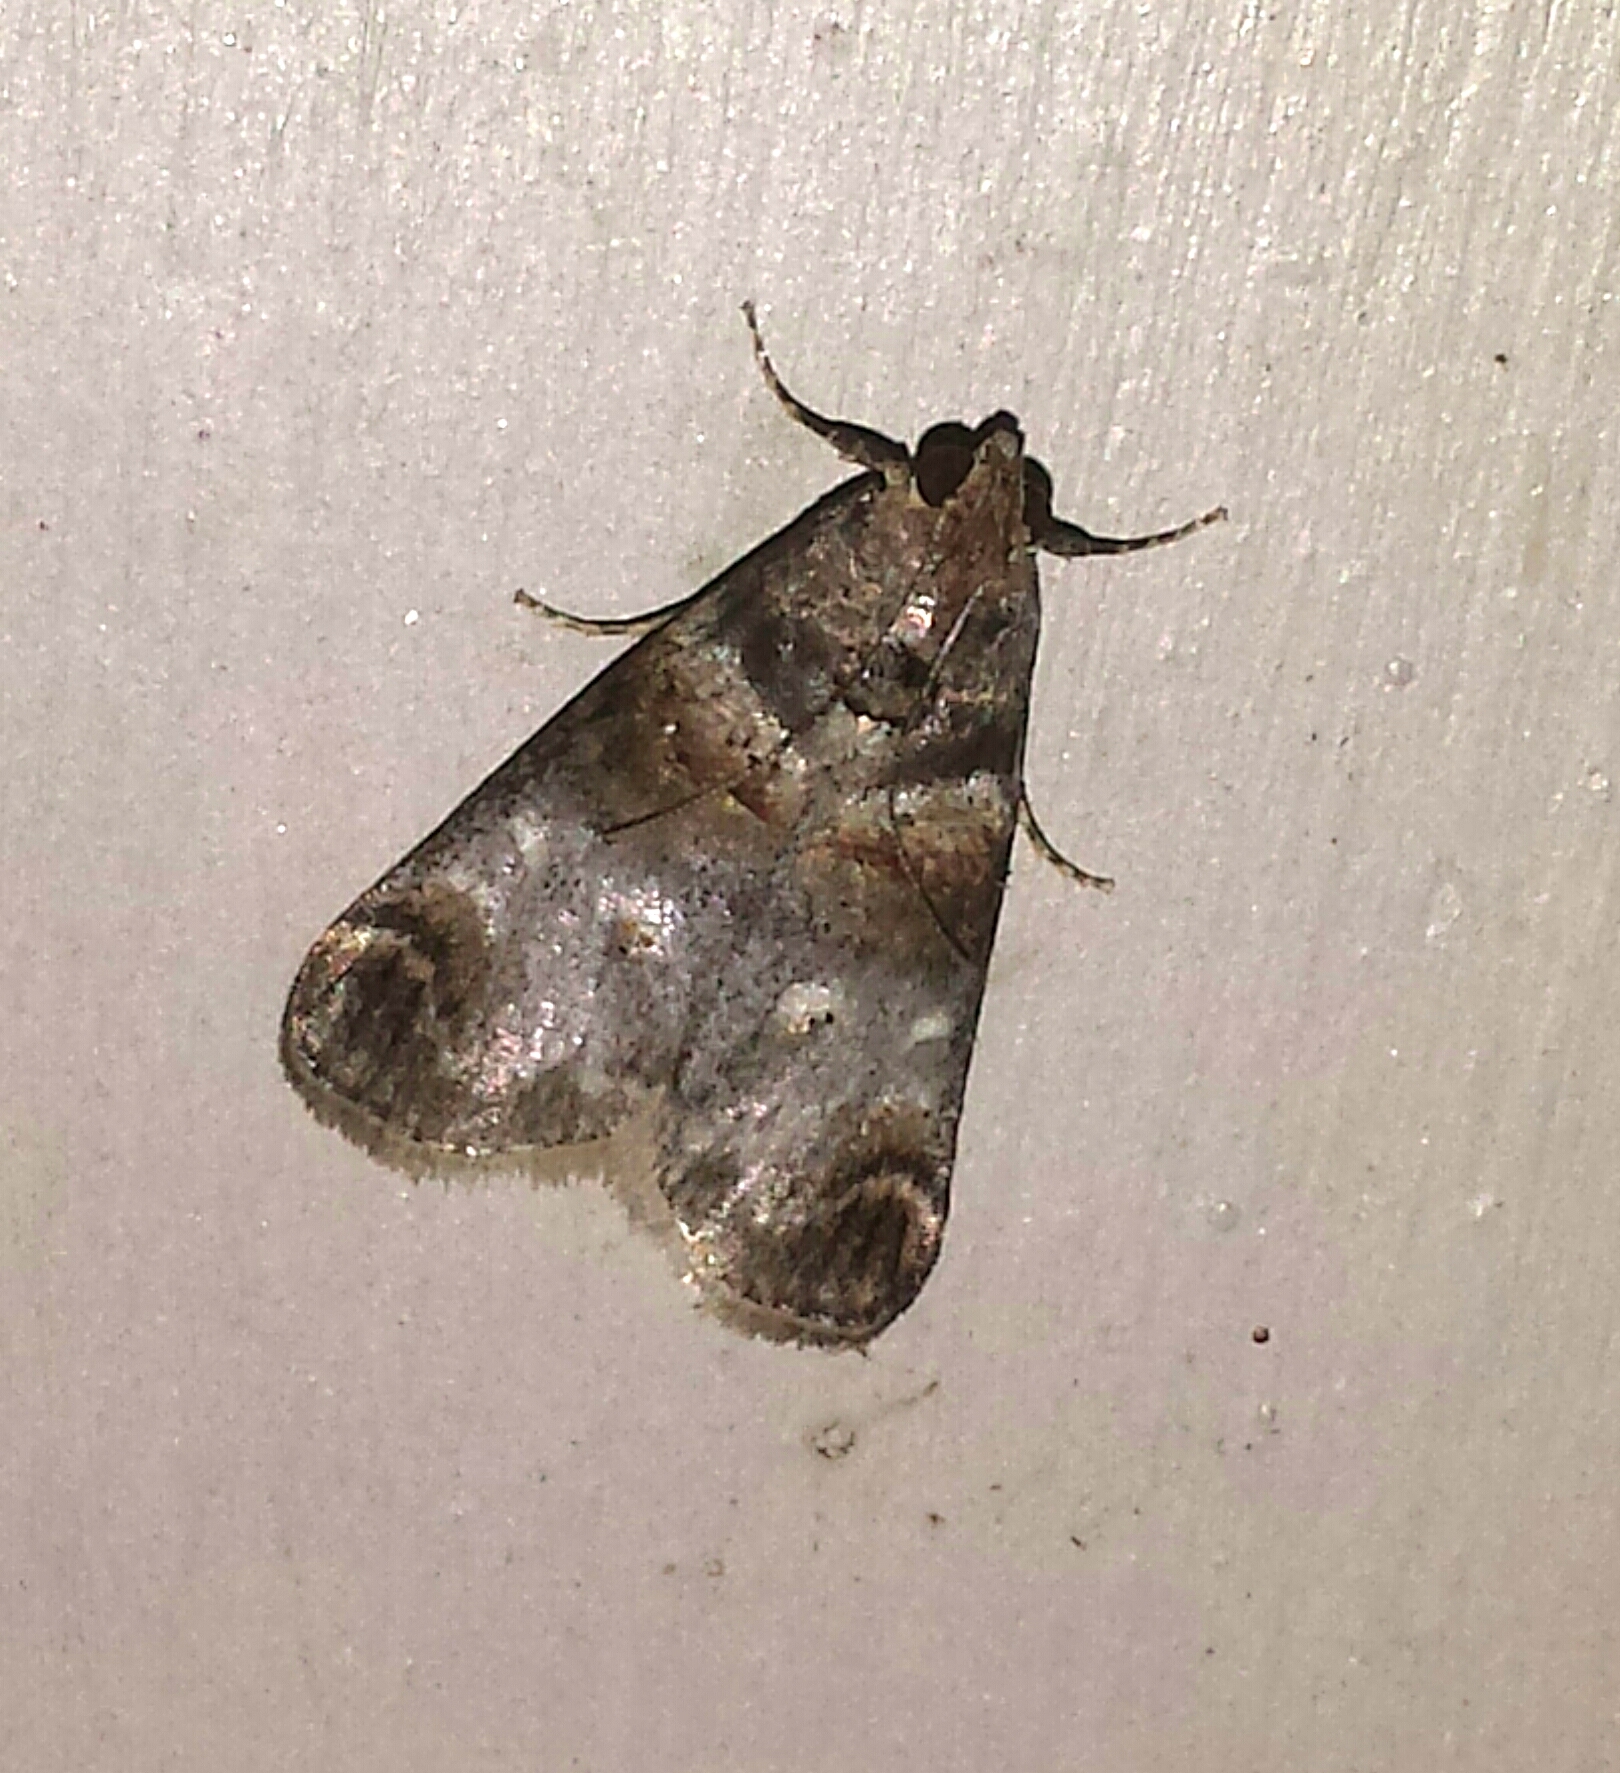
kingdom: Animalia
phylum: Arthropoda
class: Insecta
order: Lepidoptera
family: Pyralidae
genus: Oneida
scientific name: Oneida lunulalis
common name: Orange-tufted oneida moth
